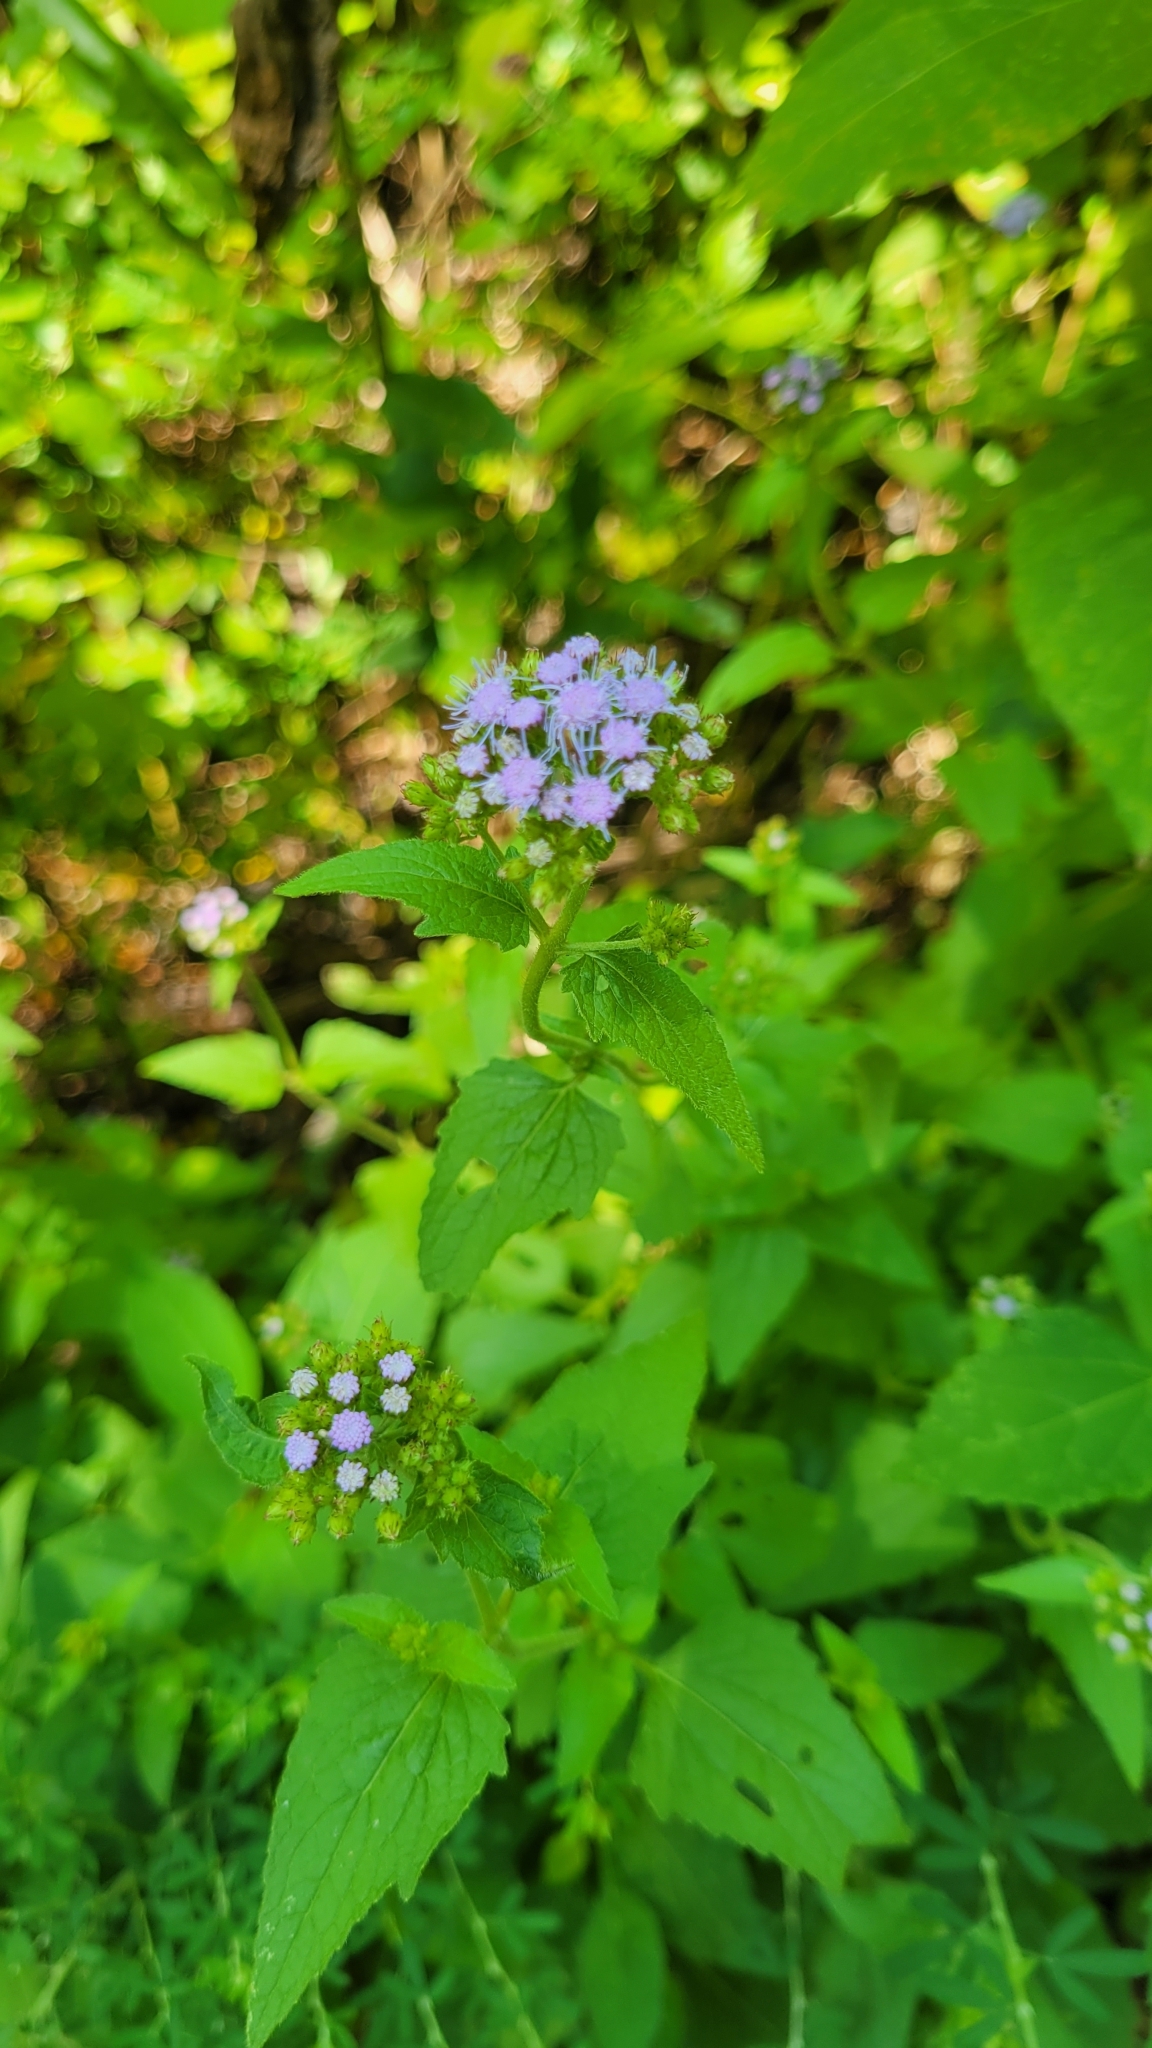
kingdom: Plantae
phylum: Tracheophyta
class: Magnoliopsida
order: Asterales
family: Asteraceae
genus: Conoclinium
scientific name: Conoclinium coelestinum
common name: Blue mistflower
